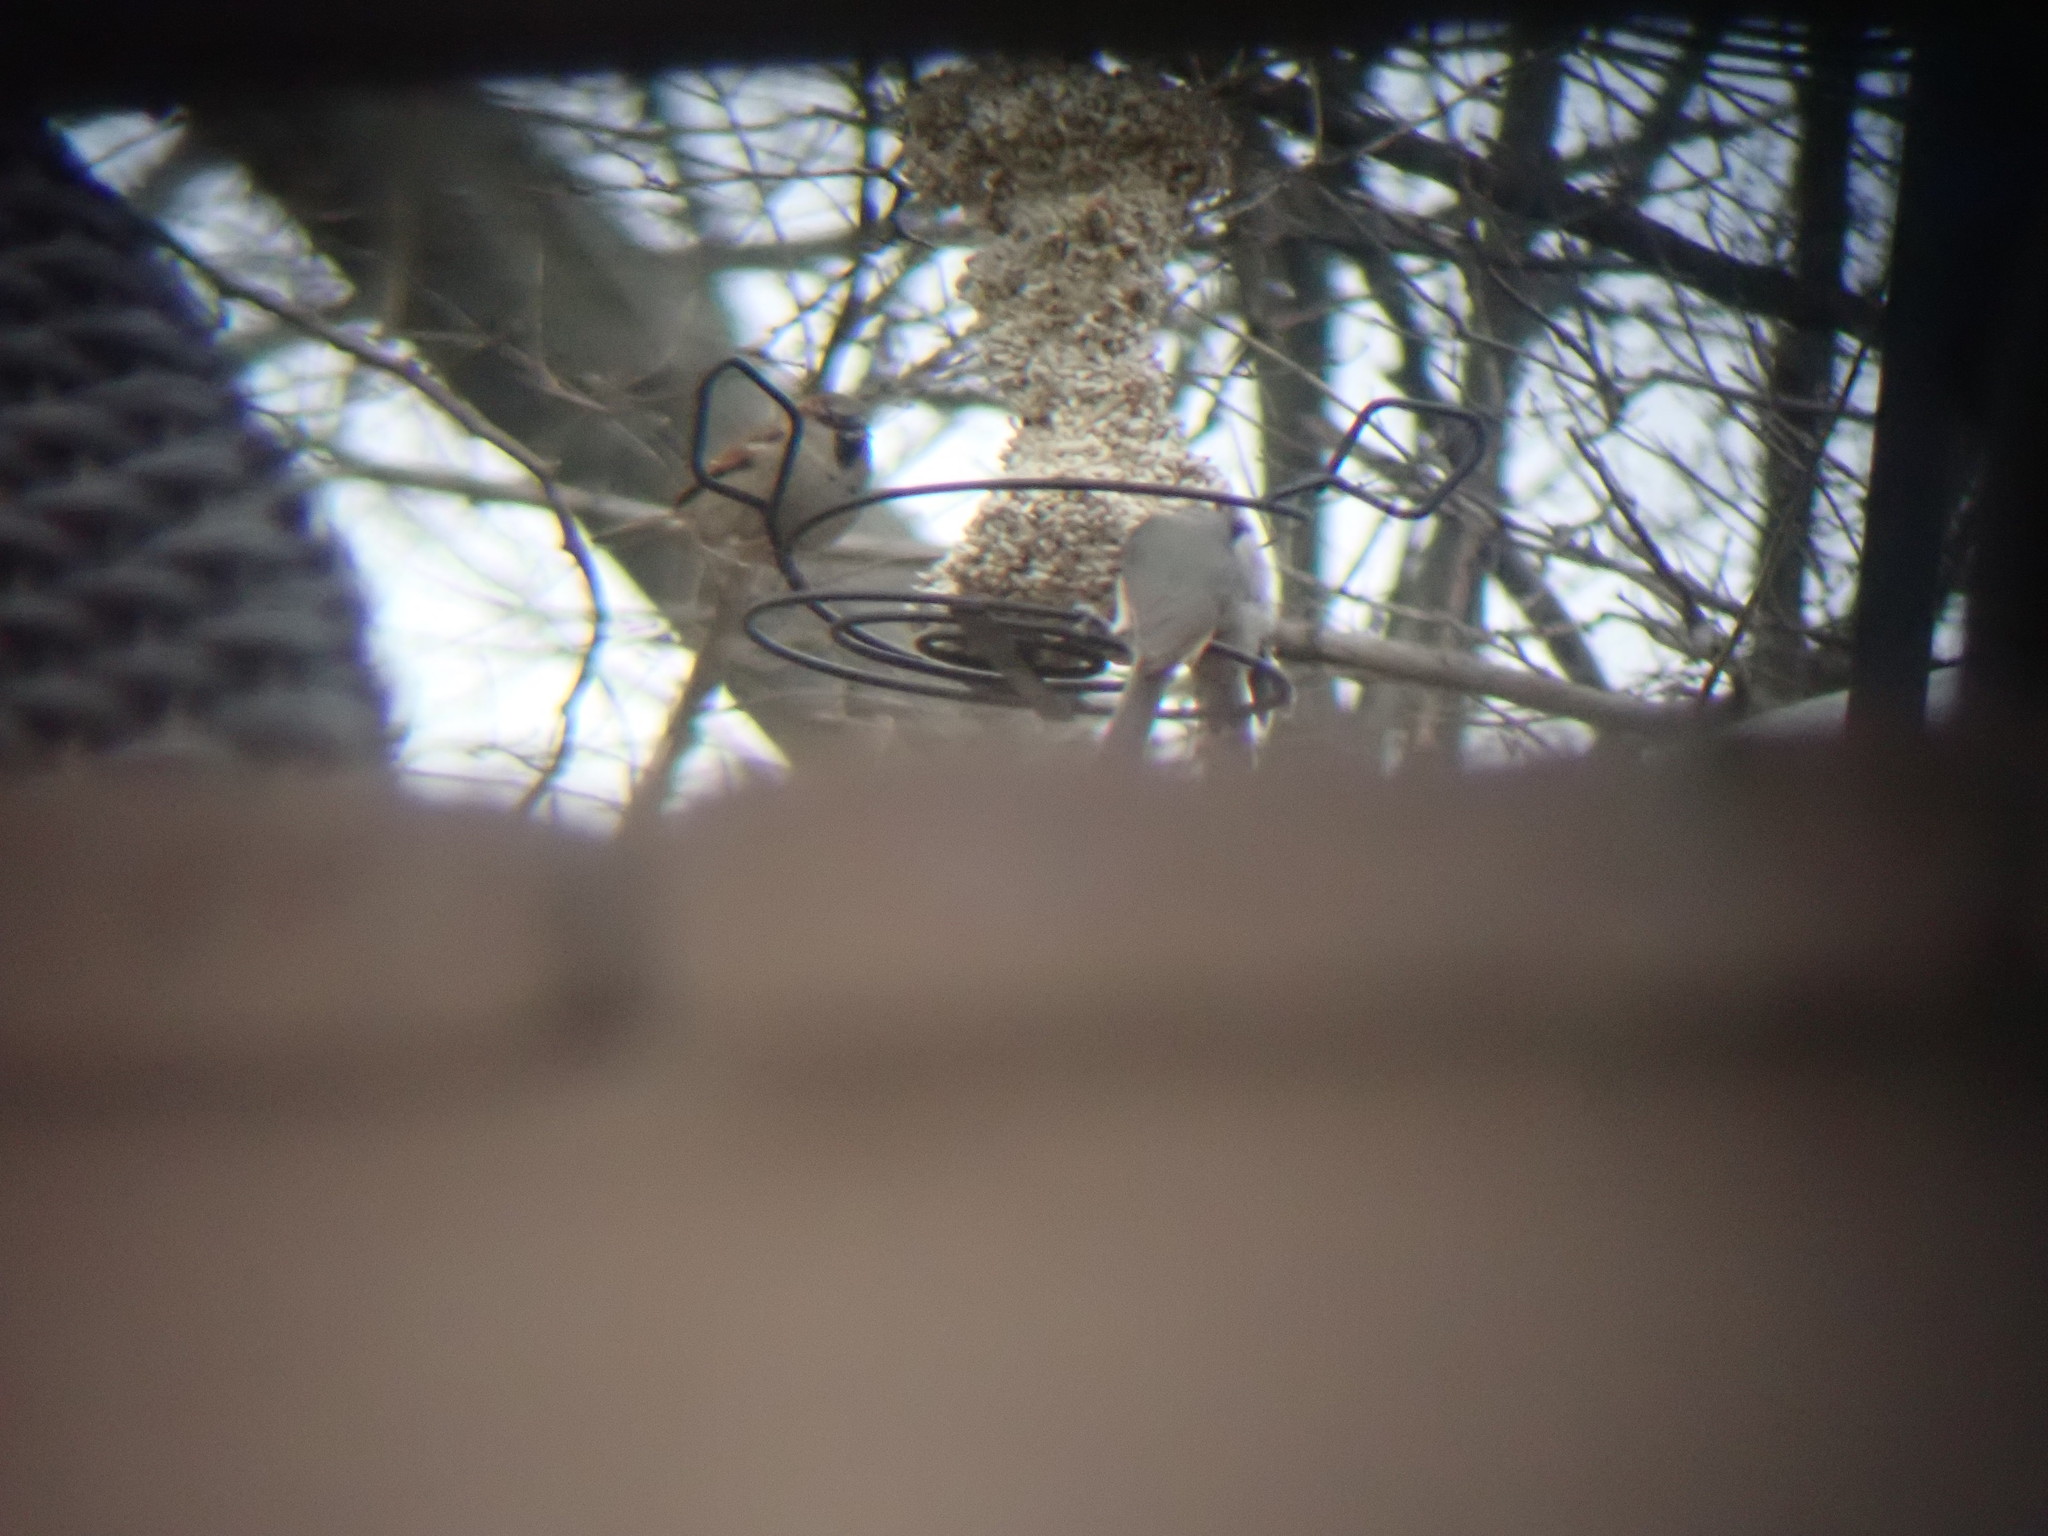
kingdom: Animalia
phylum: Chordata
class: Aves
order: Passeriformes
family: Passeridae
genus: Passer
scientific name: Passer domesticus
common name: House sparrow
